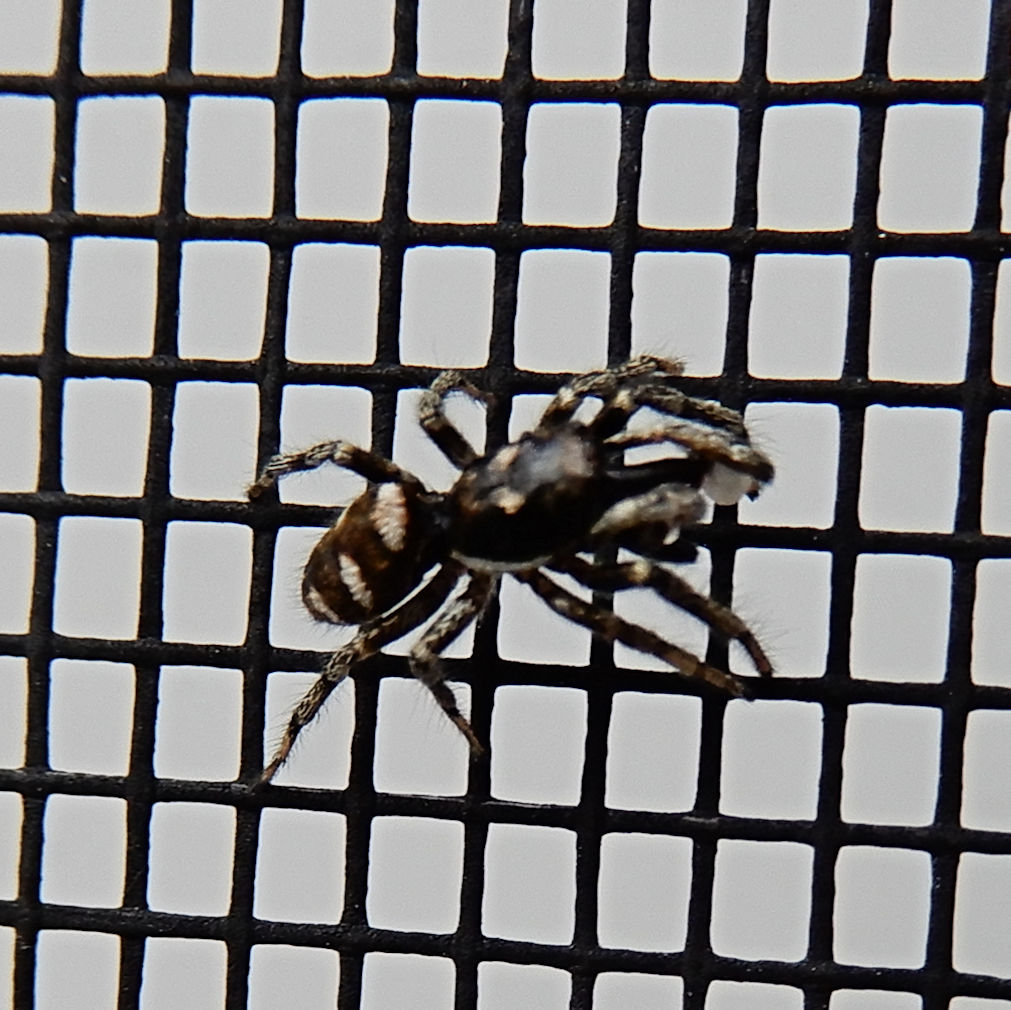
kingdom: Animalia
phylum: Arthropoda
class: Arachnida
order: Araneae
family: Salticidae
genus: Salticus
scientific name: Salticus scenicus
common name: Zebra jumper
